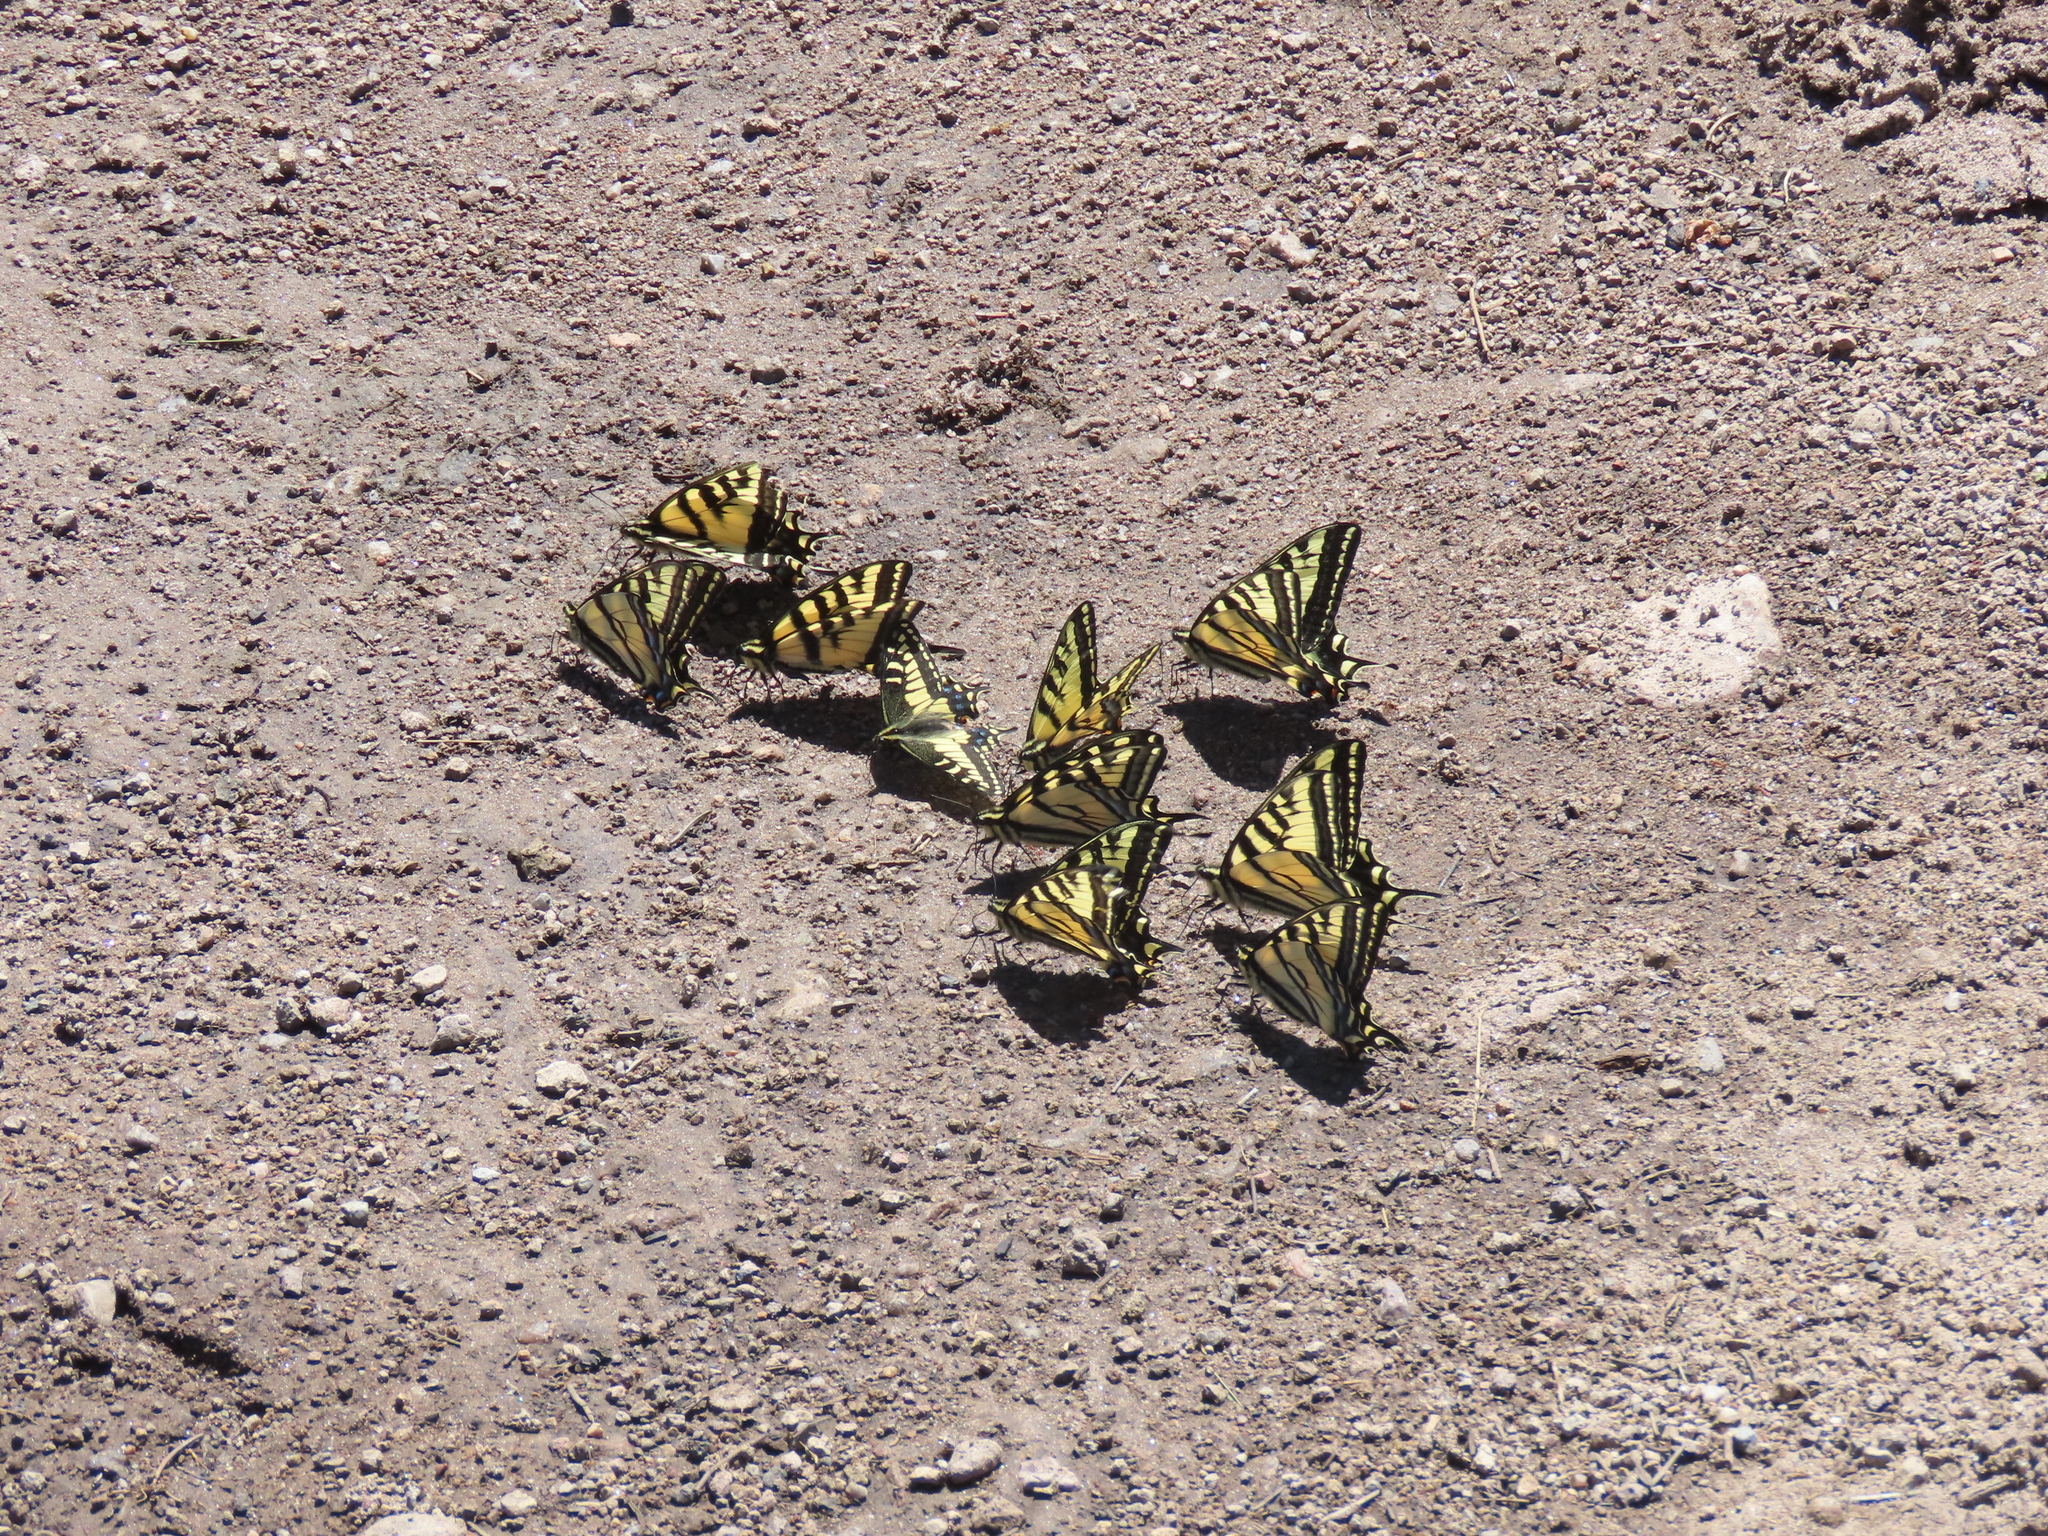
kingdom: Animalia
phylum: Arthropoda
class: Insecta
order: Lepidoptera
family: Papilionidae
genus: Papilio
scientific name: Papilio zelicaon
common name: Anise swallowtail
